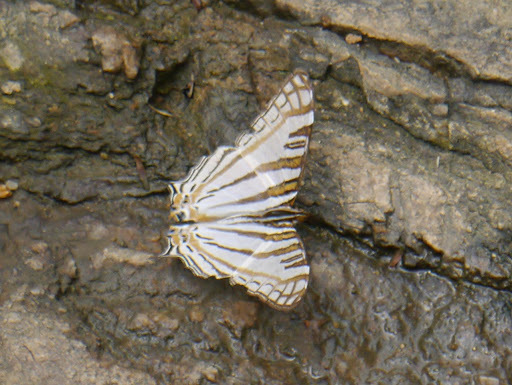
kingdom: Animalia
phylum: Arthropoda
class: Insecta
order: Lepidoptera
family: Nymphalidae
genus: Marpesia
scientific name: Marpesia camillus
